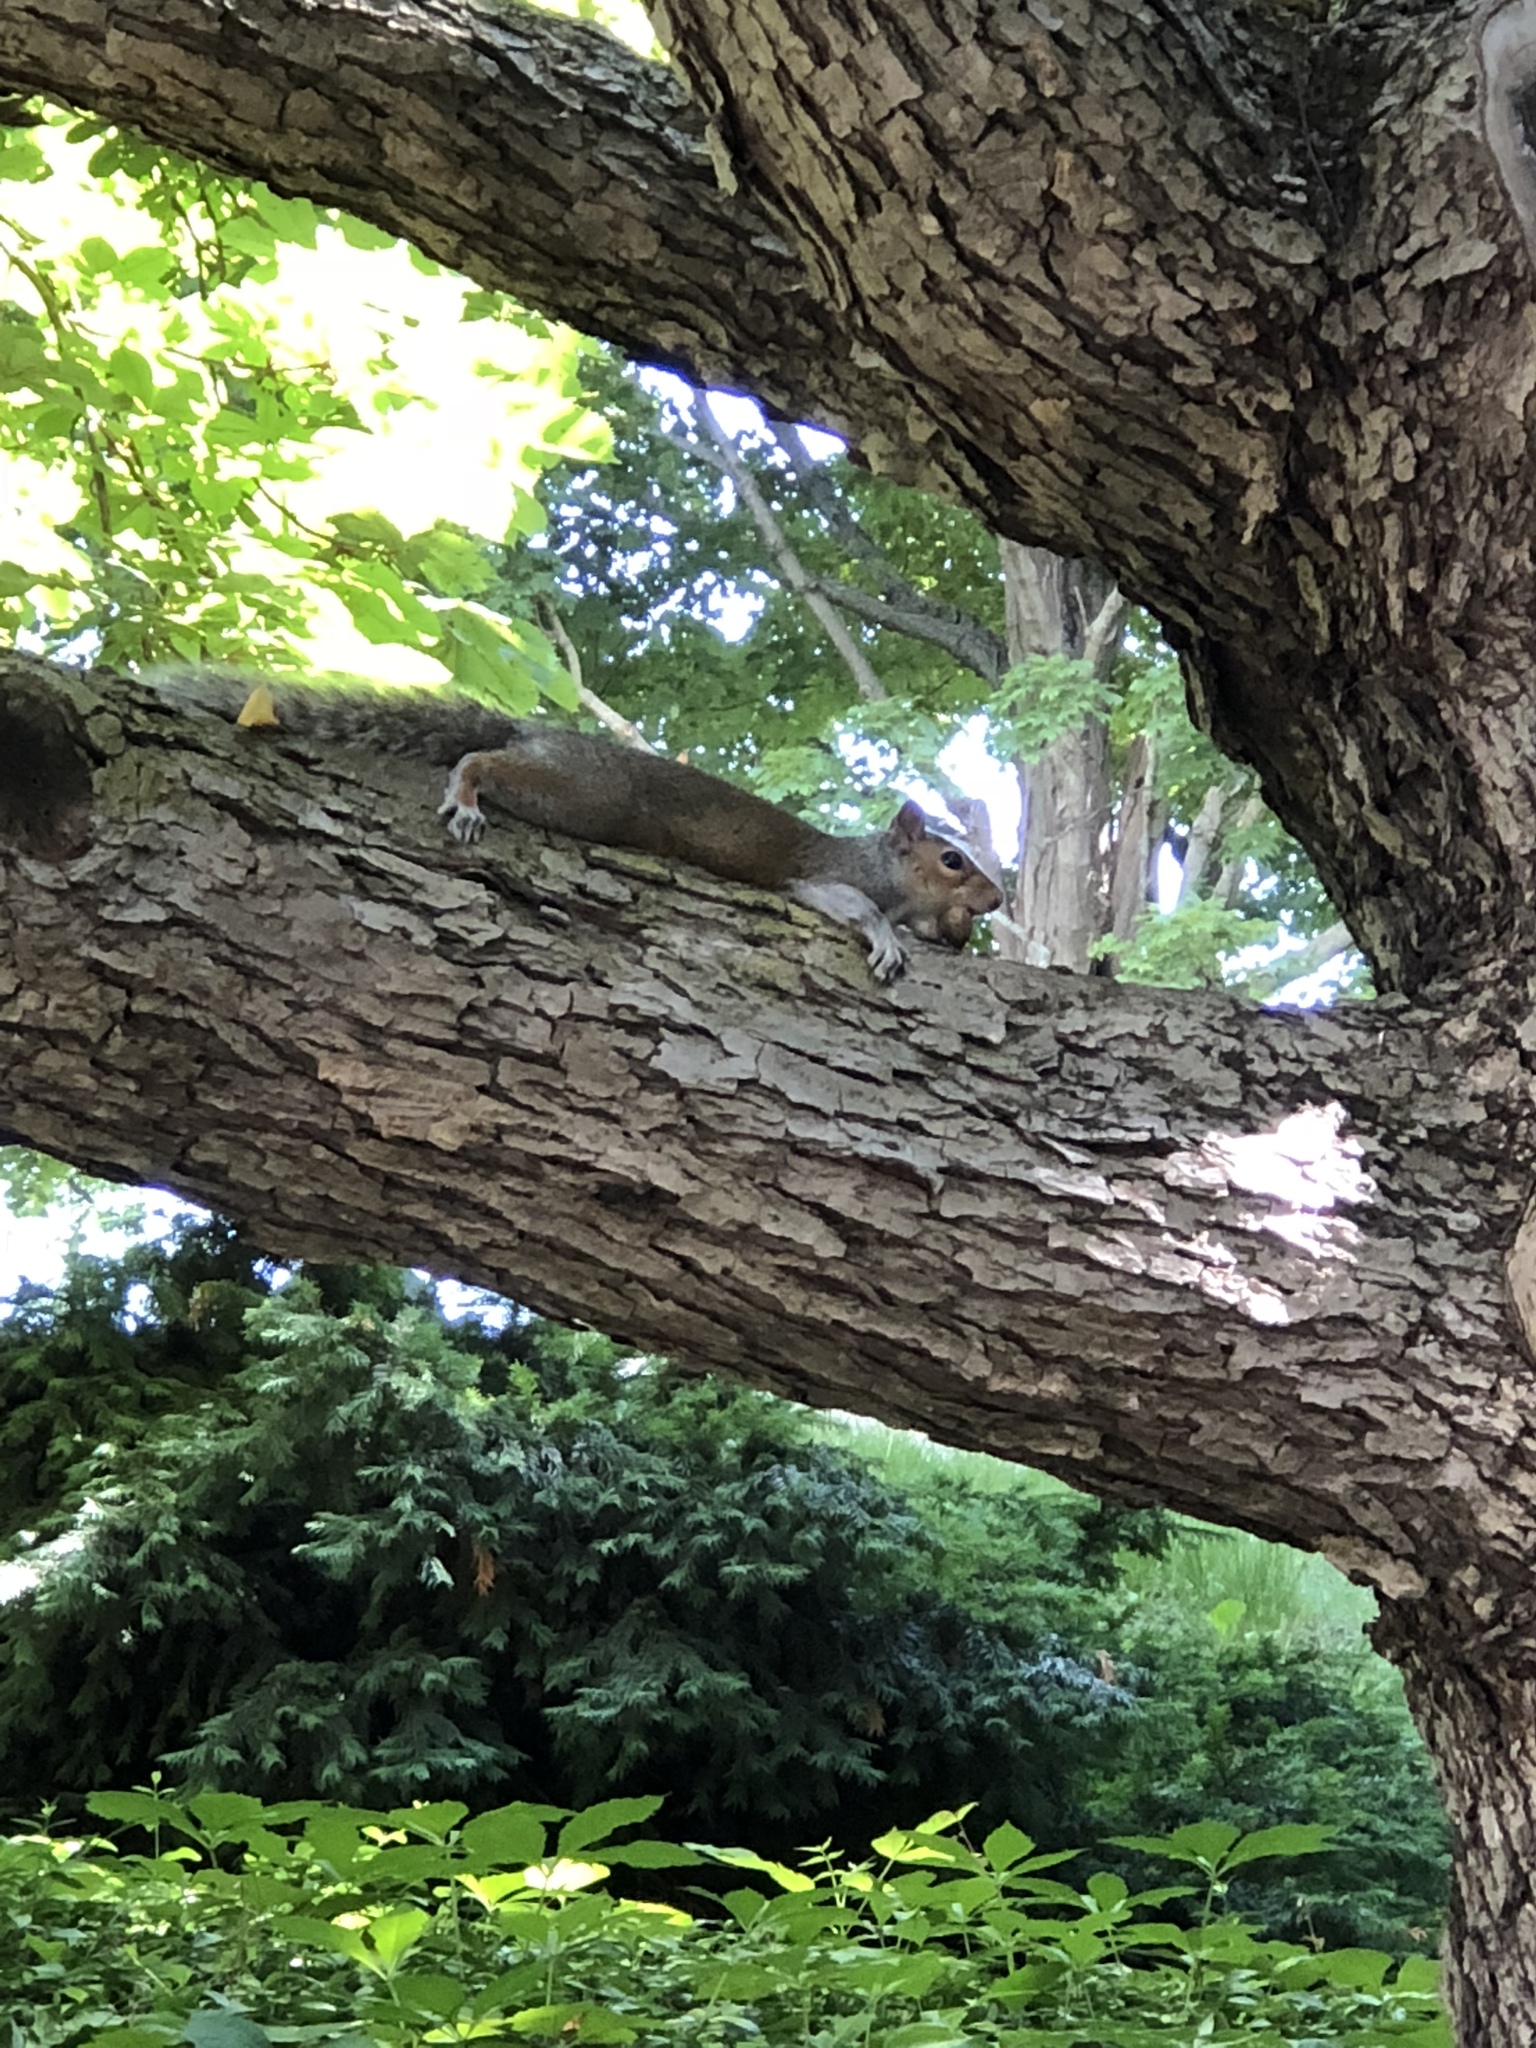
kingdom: Animalia
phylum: Chordata
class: Mammalia
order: Rodentia
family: Sciuridae
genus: Sciurus
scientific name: Sciurus carolinensis
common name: Eastern gray squirrel
